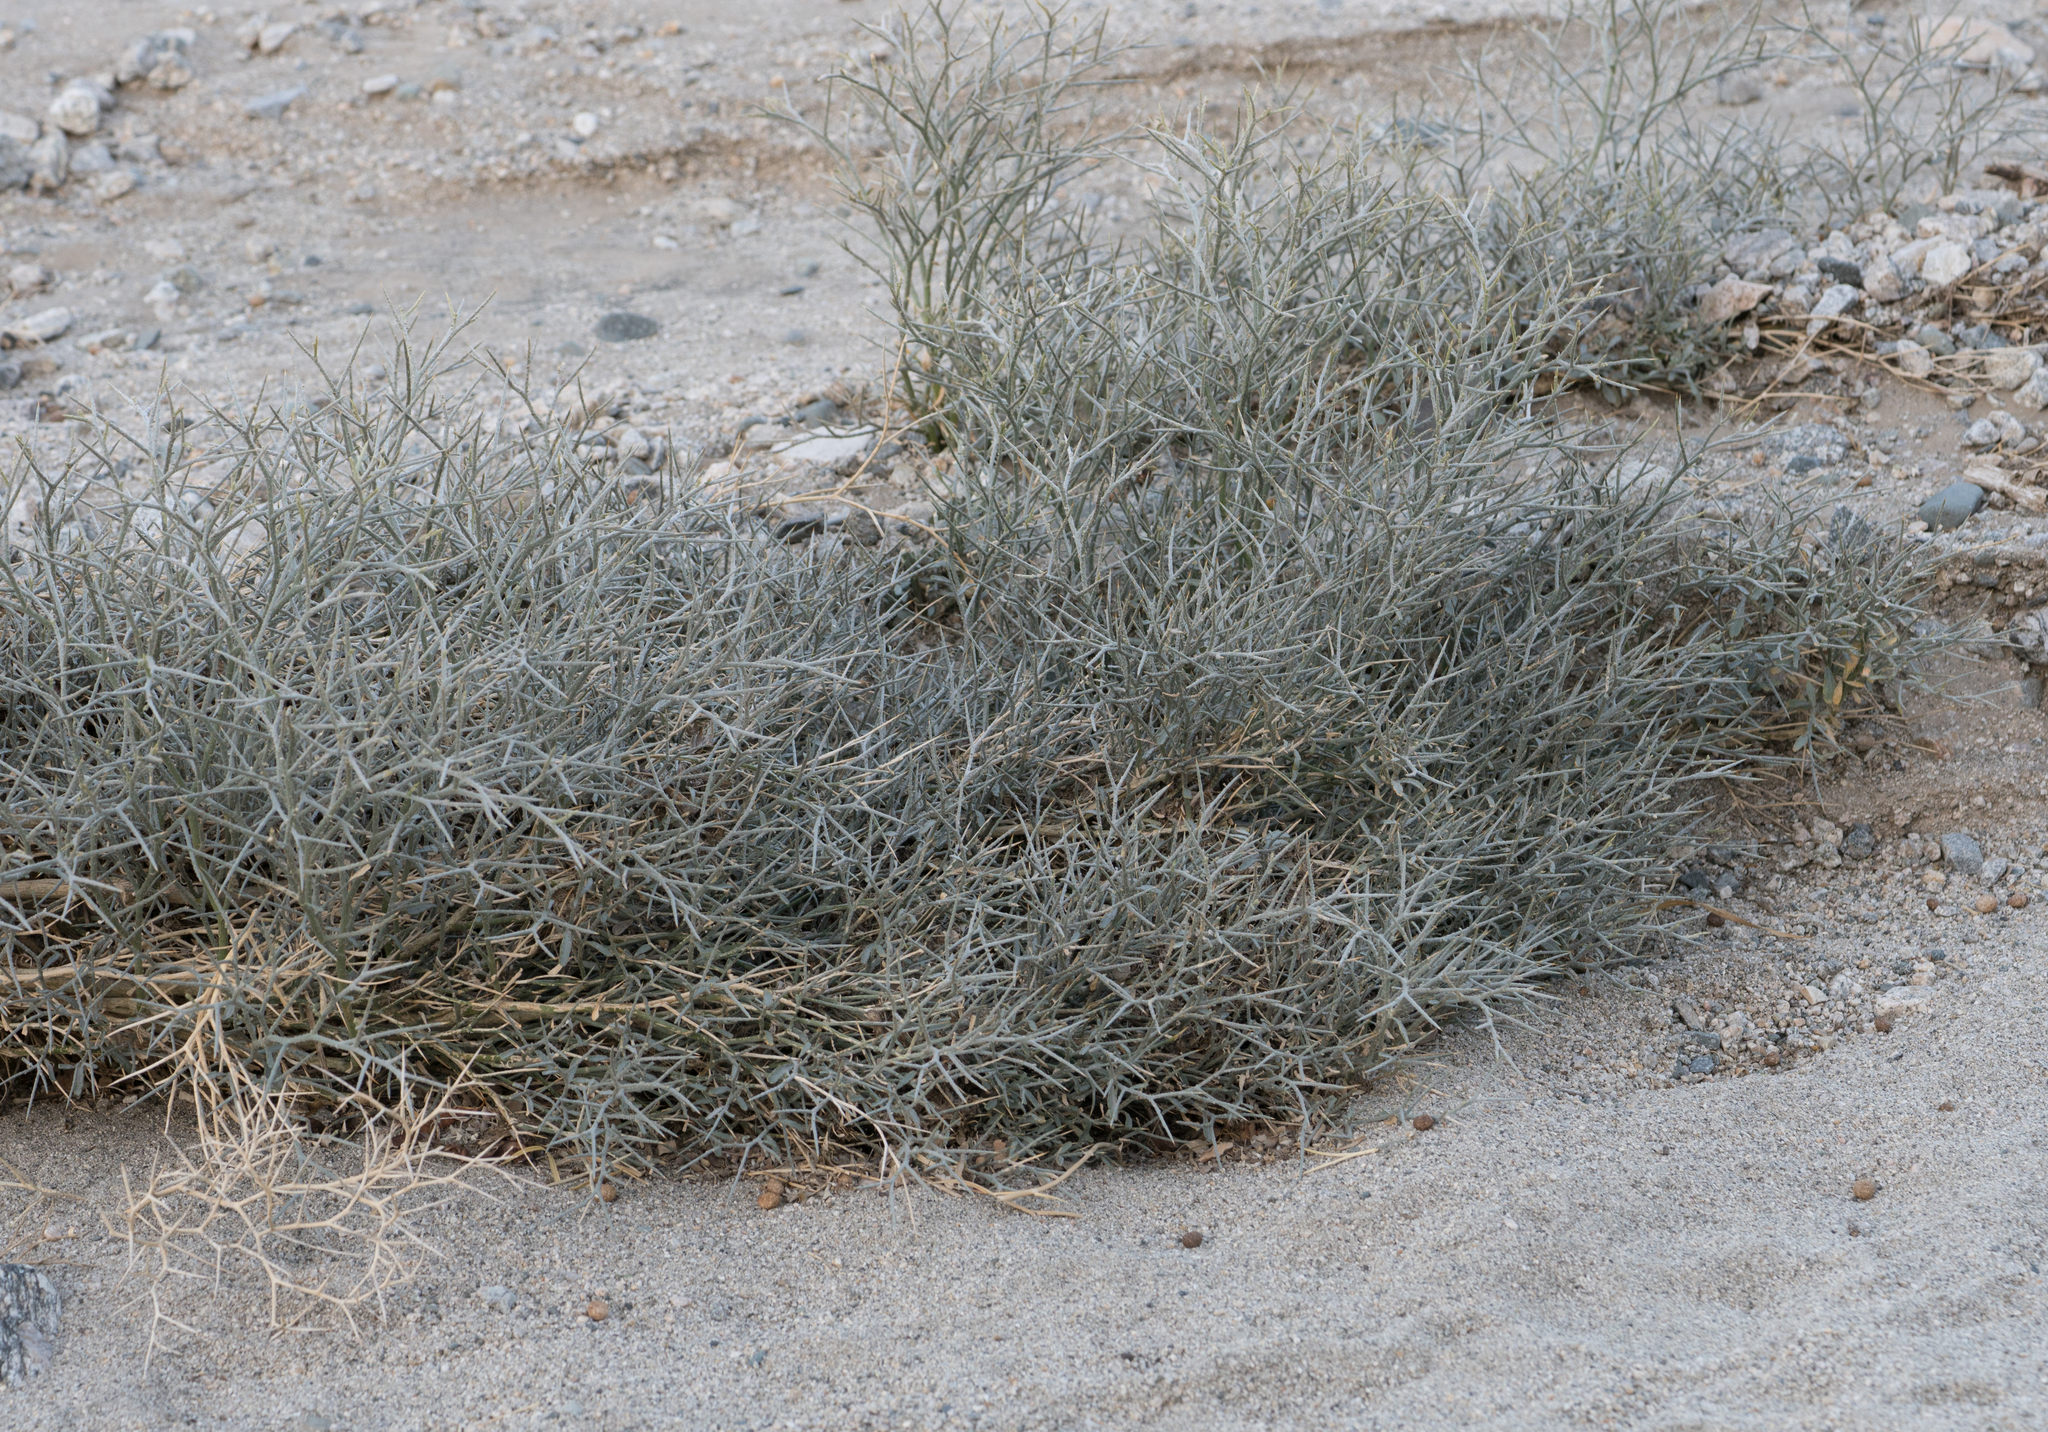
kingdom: Plantae
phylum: Tracheophyta
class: Magnoliopsida
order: Fabales
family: Fabaceae
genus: Psorothamnus
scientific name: Psorothamnus spinosus
